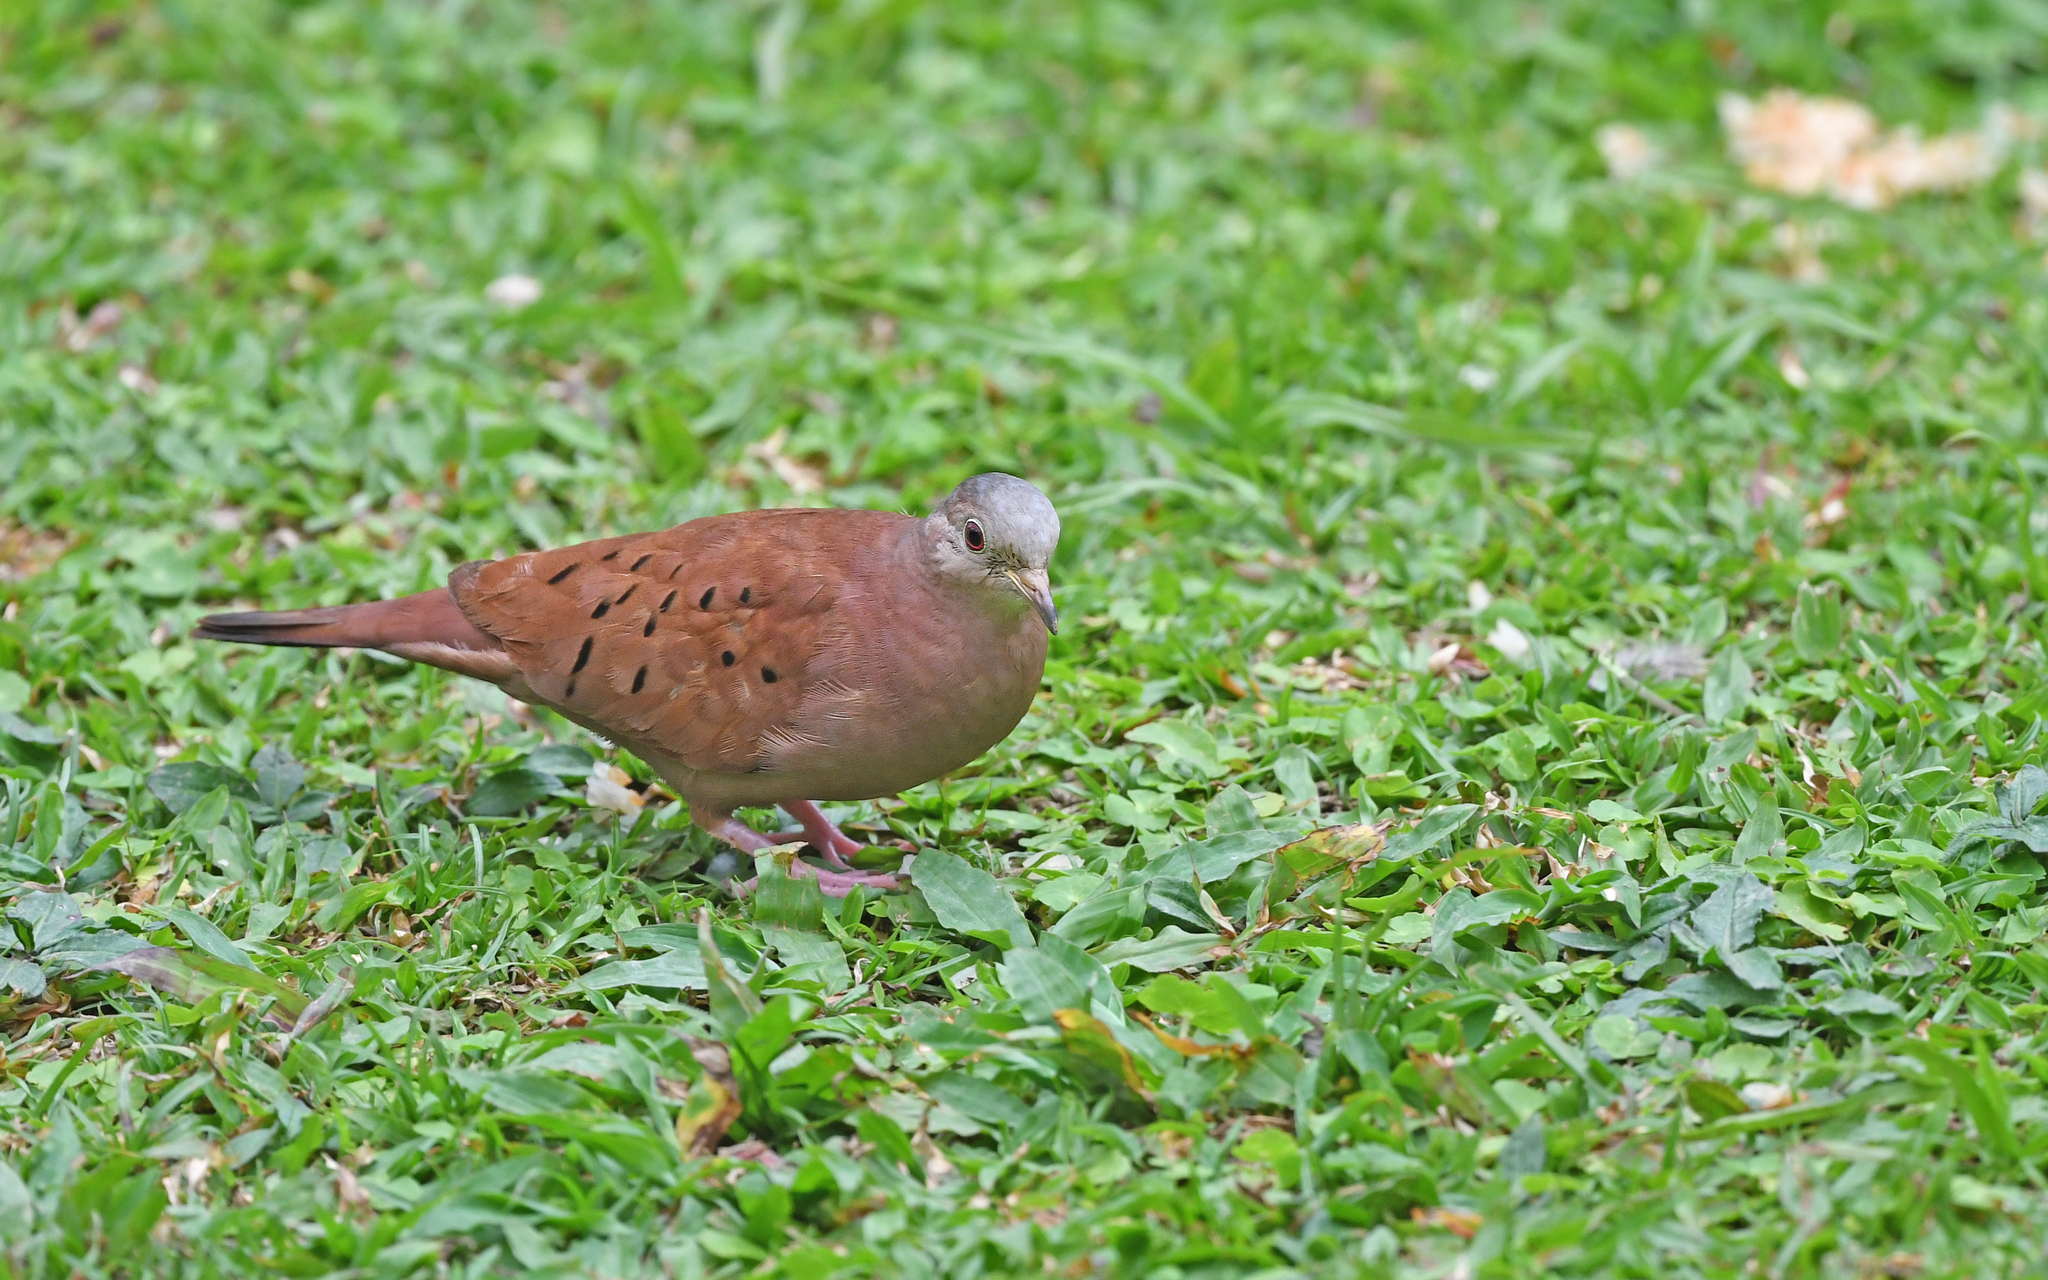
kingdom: Animalia
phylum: Chordata
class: Aves
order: Columbiformes
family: Columbidae
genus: Columbina
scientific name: Columbina talpacoti
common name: Ruddy ground dove
